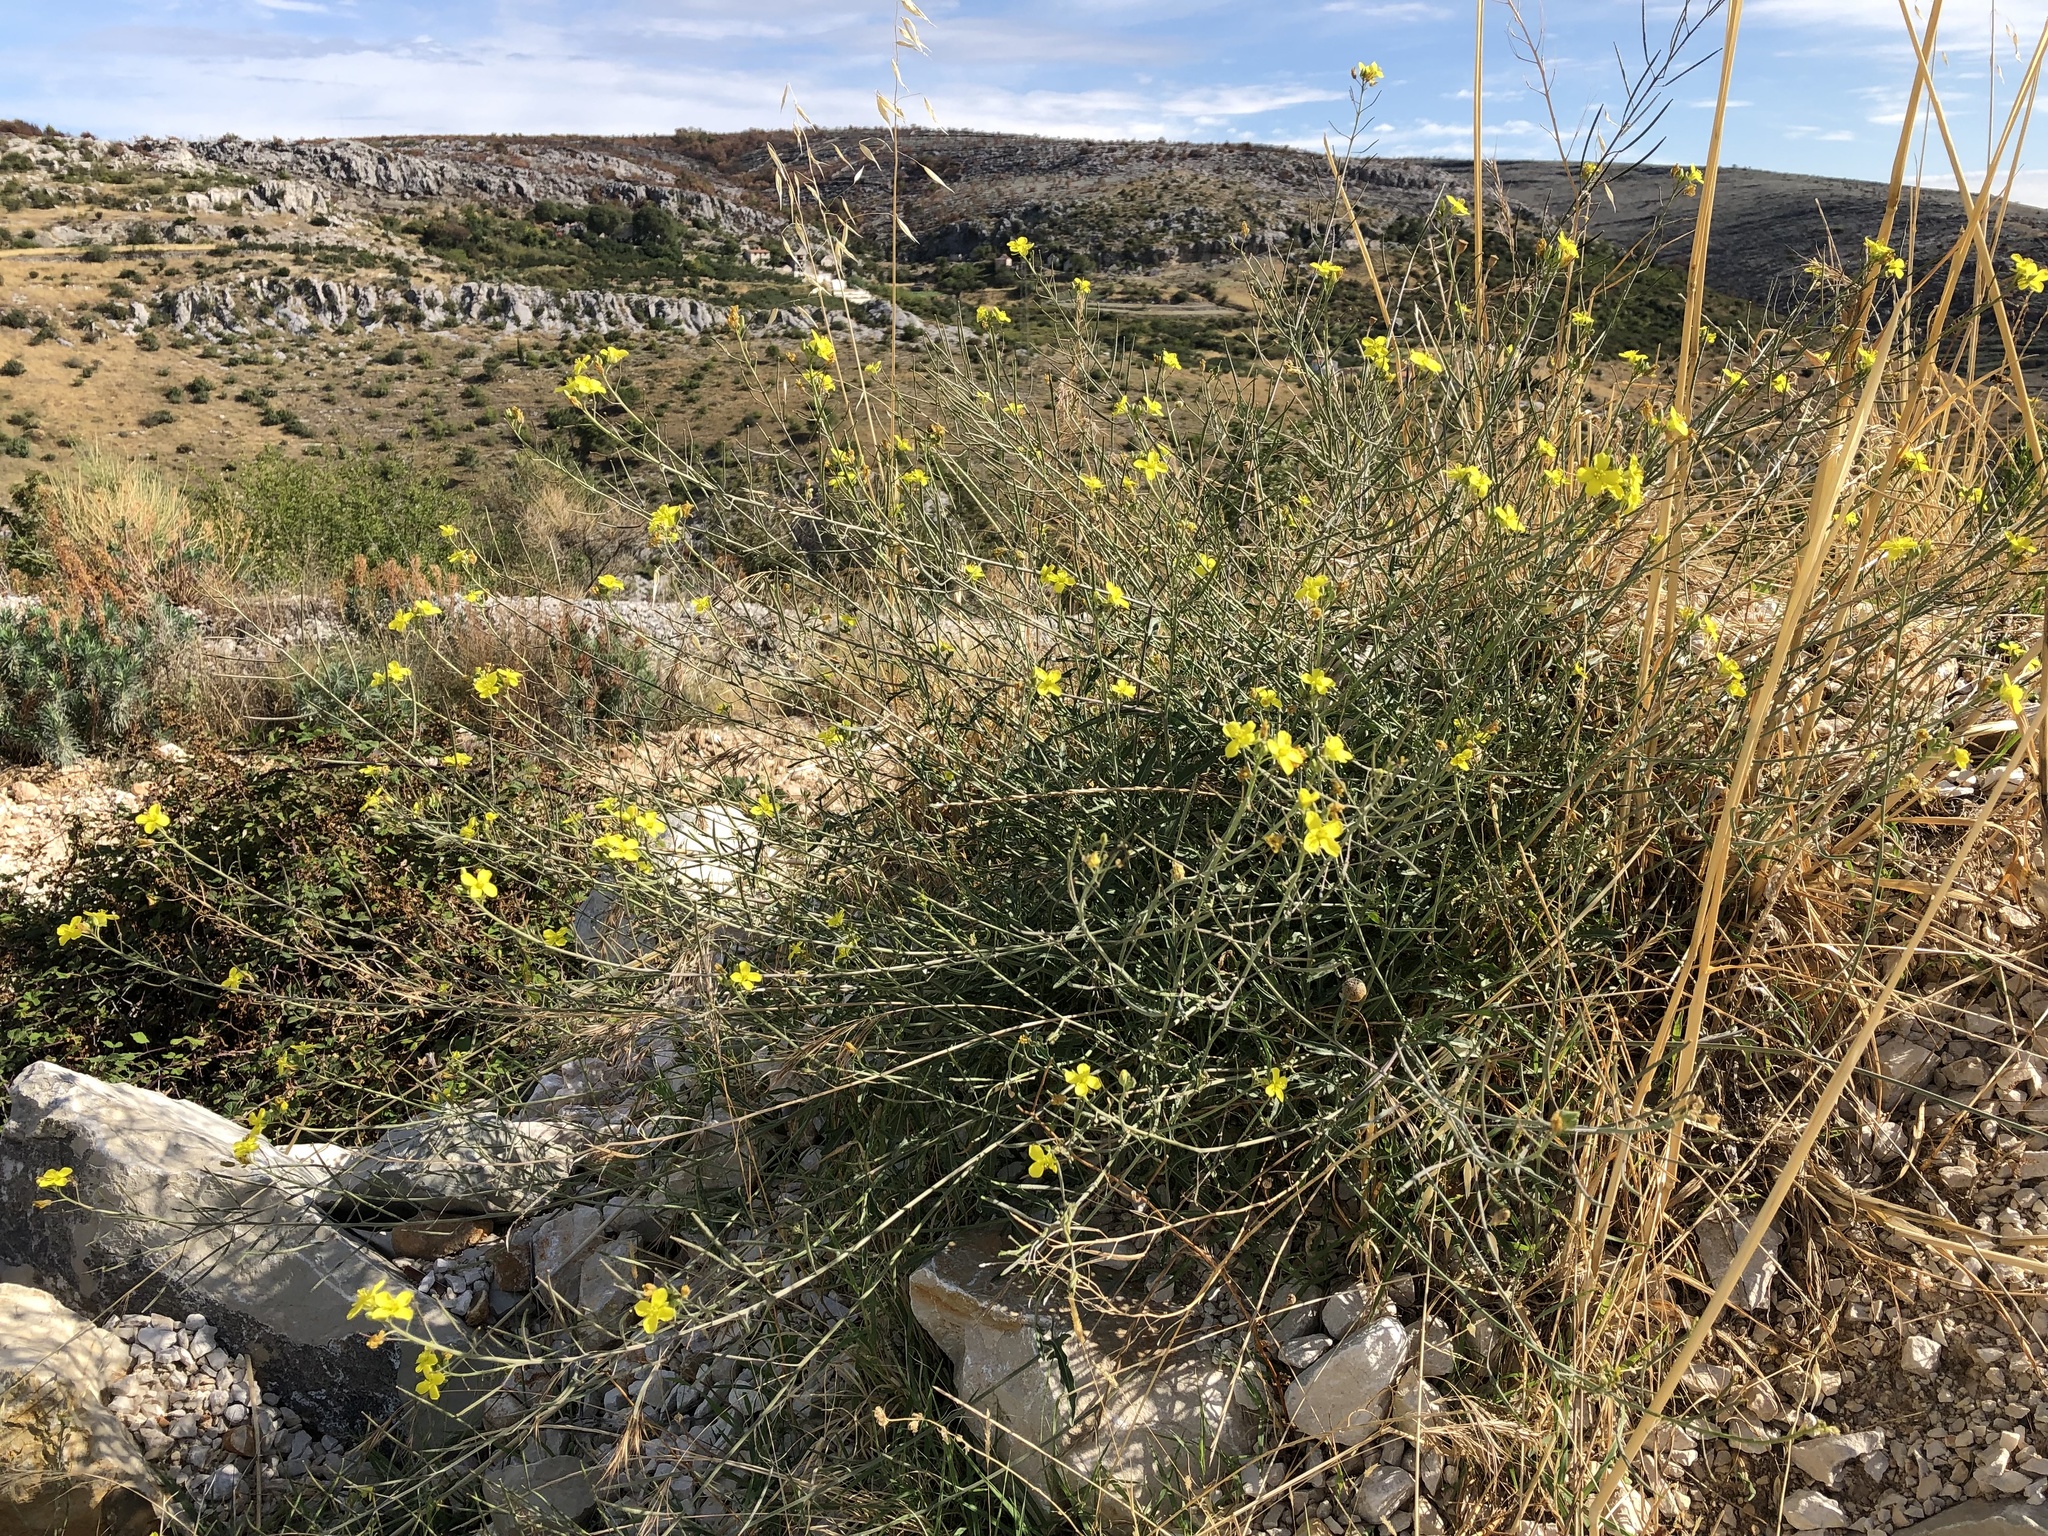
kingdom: Plantae
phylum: Tracheophyta
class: Magnoliopsida
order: Brassicales
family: Brassicaceae
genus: Diplotaxis
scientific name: Diplotaxis tenuifolia
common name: Perennial wall-rocket
